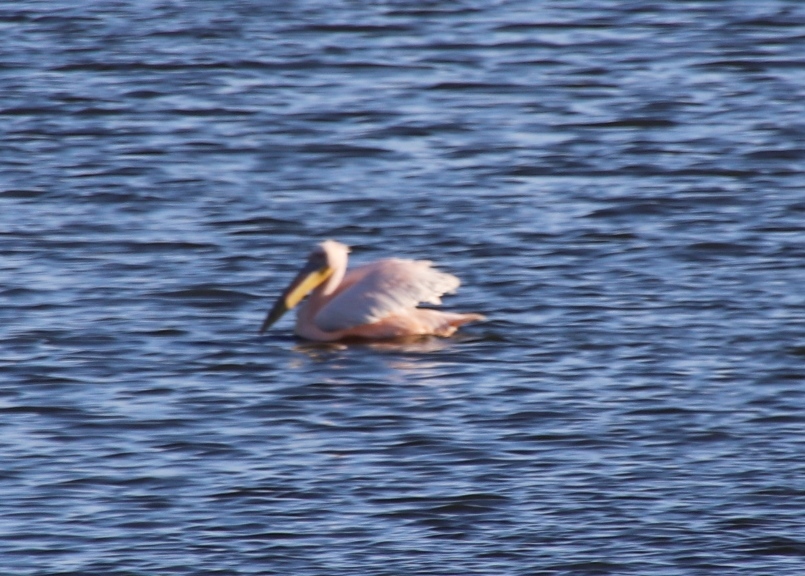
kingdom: Animalia
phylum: Chordata
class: Aves
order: Pelecaniformes
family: Pelecanidae
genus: Pelecanus
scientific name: Pelecanus onocrotalus
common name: Great white pelican
